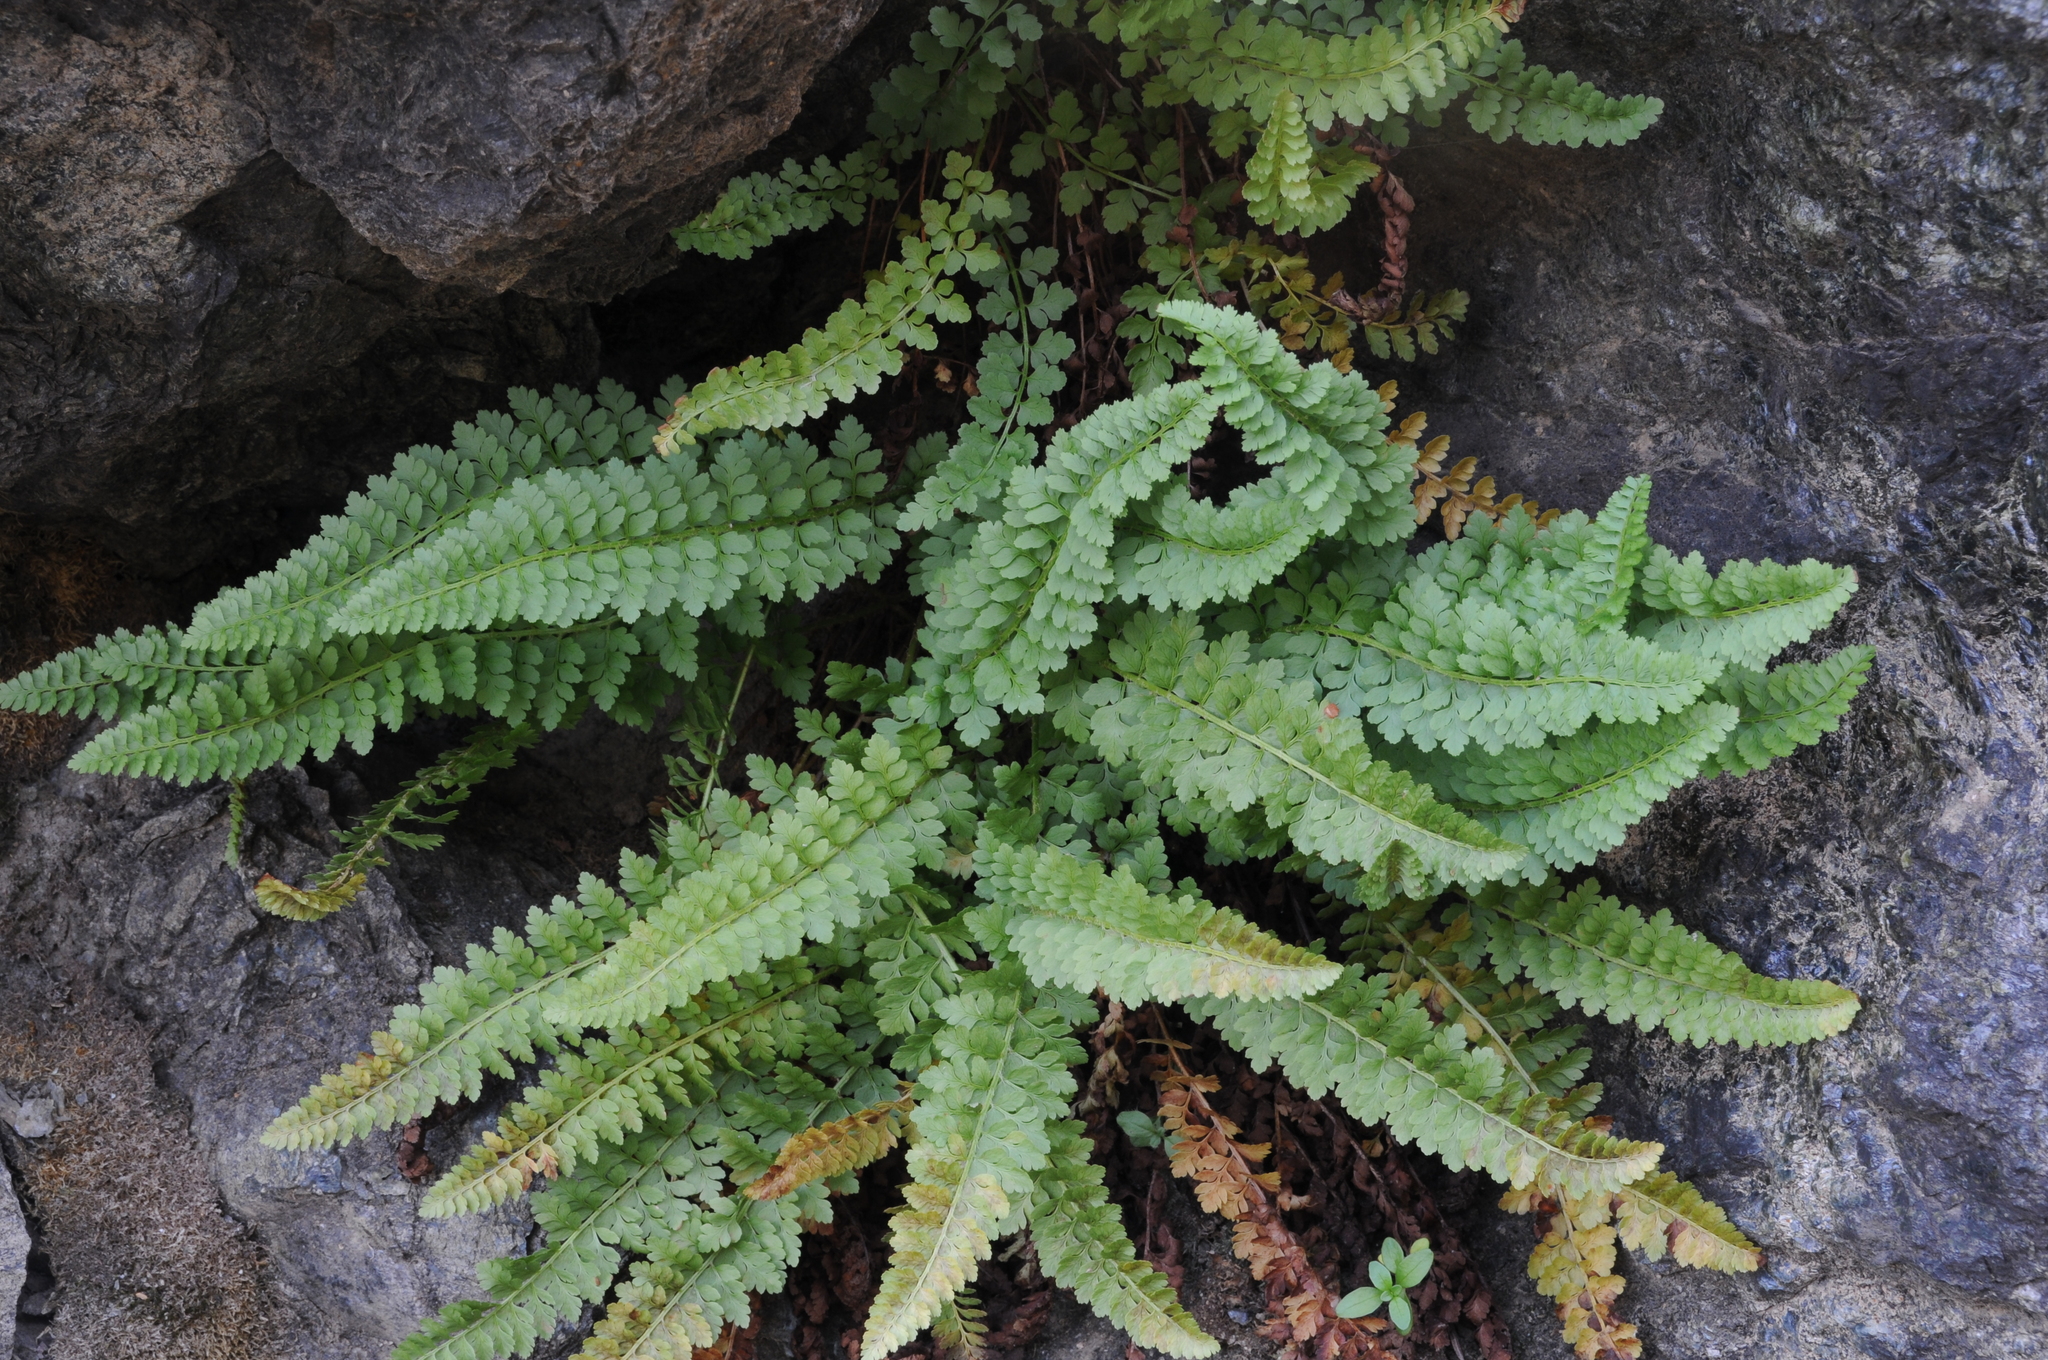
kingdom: Plantae
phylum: Tracheophyta
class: Polypodiopsida
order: Polypodiales
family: Dryopteridaceae
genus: Polystichum
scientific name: Polystichum lemmonii
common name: Lemmon's holly fern
